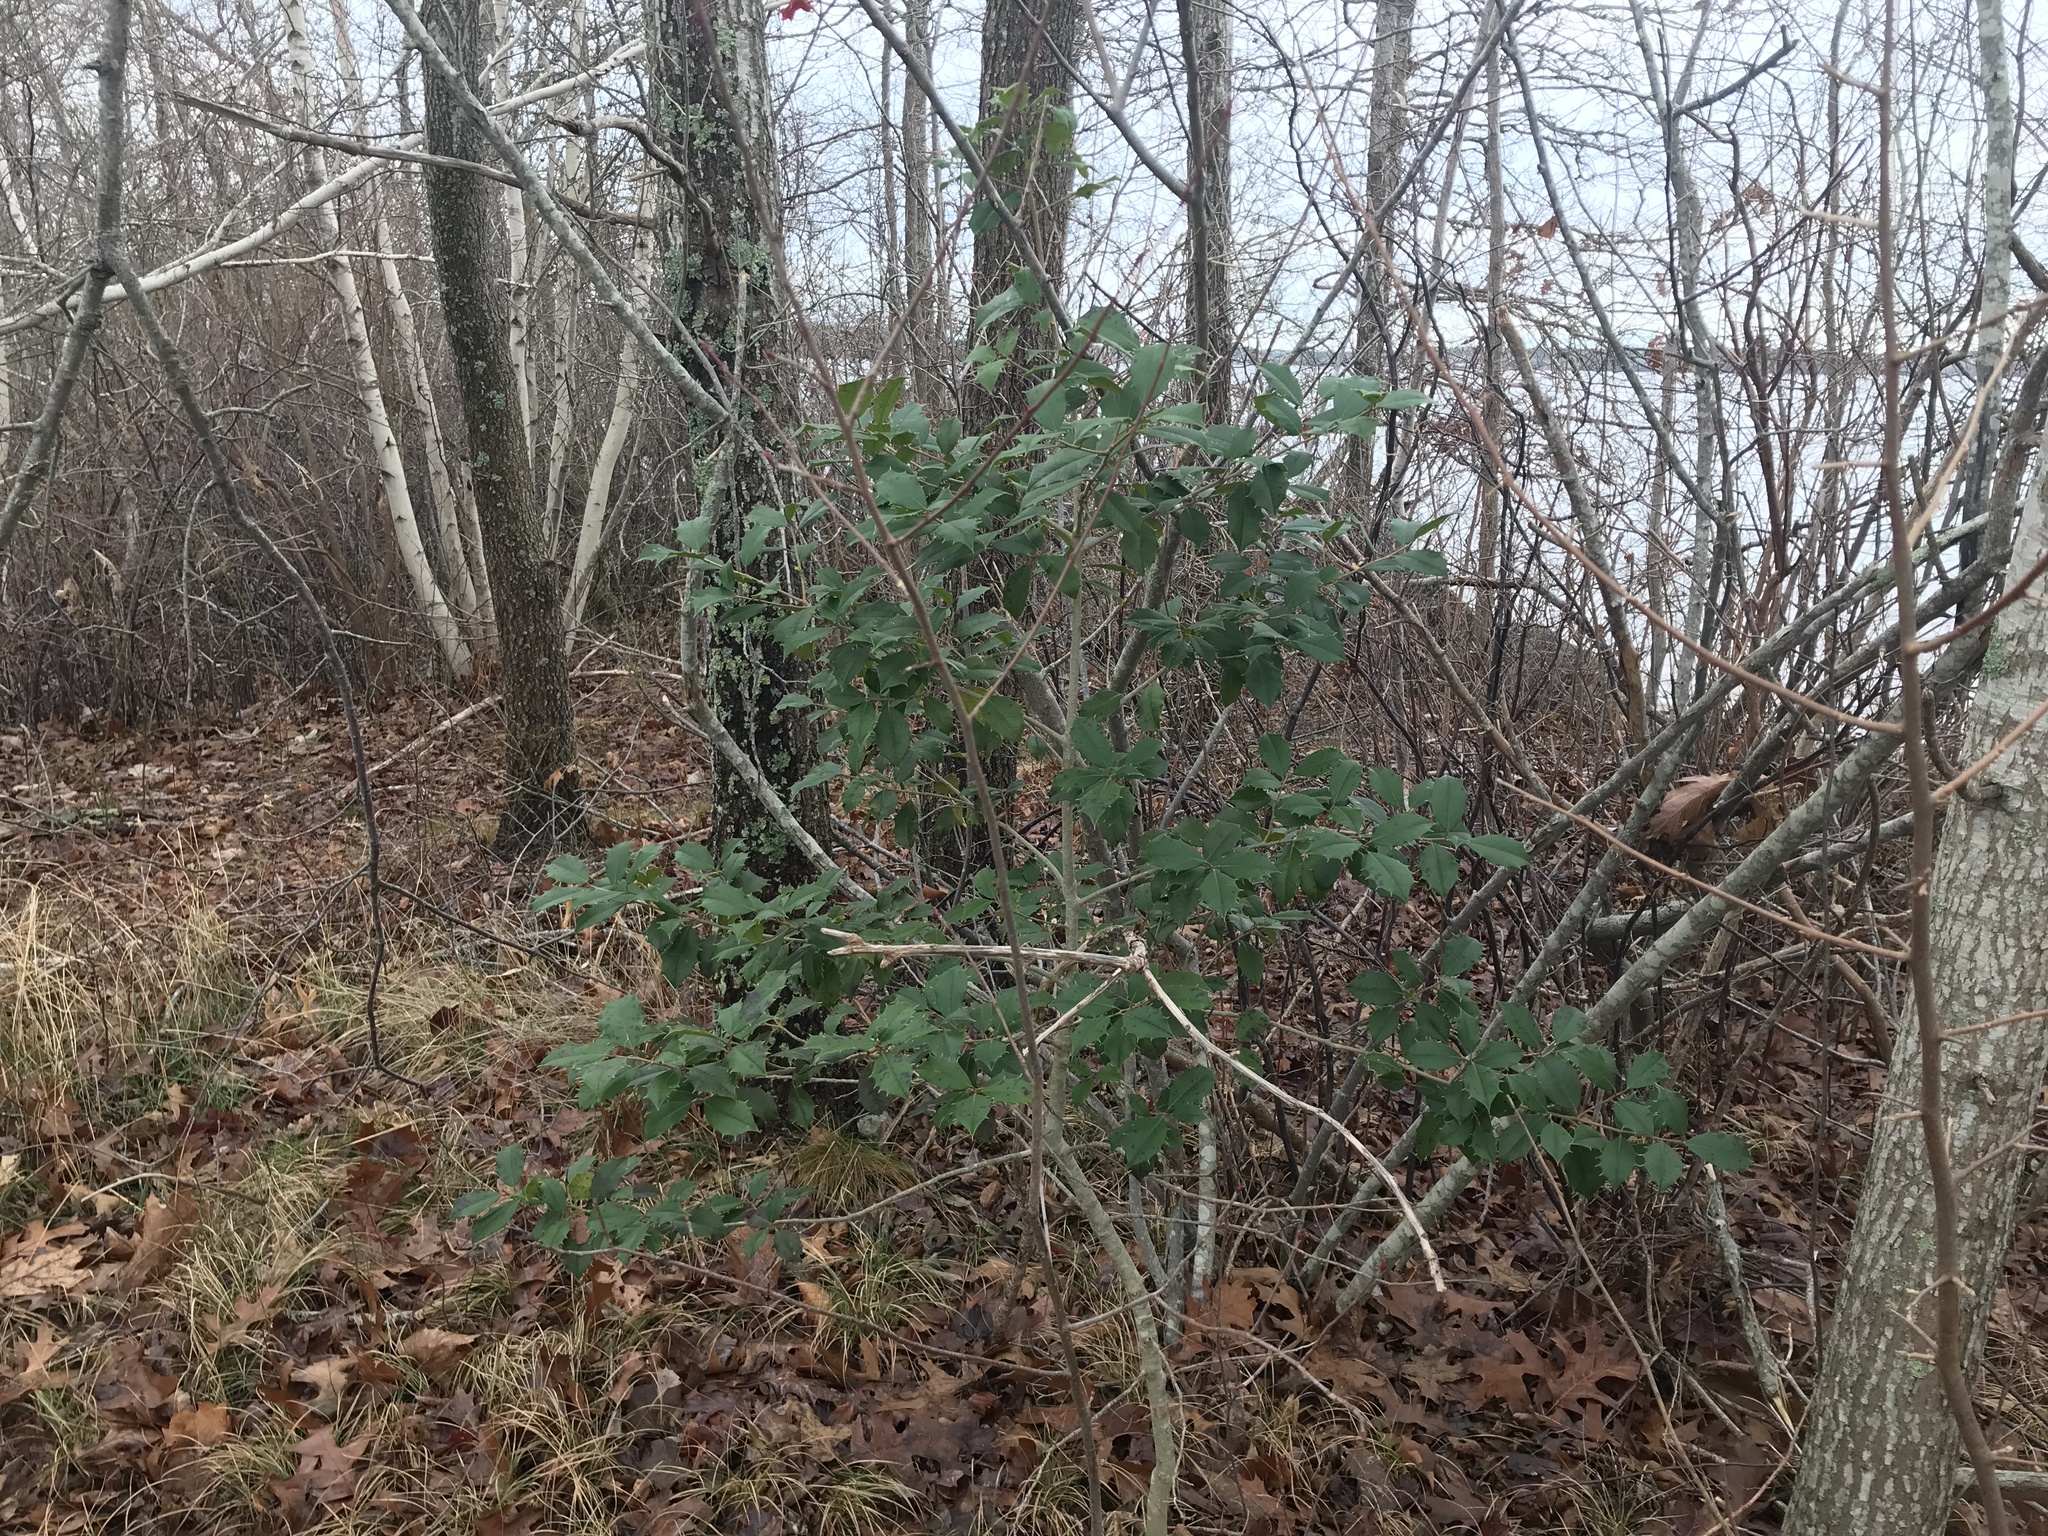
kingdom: Plantae
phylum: Tracheophyta
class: Magnoliopsida
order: Aquifoliales
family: Aquifoliaceae
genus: Ilex
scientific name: Ilex opaca
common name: American holly
